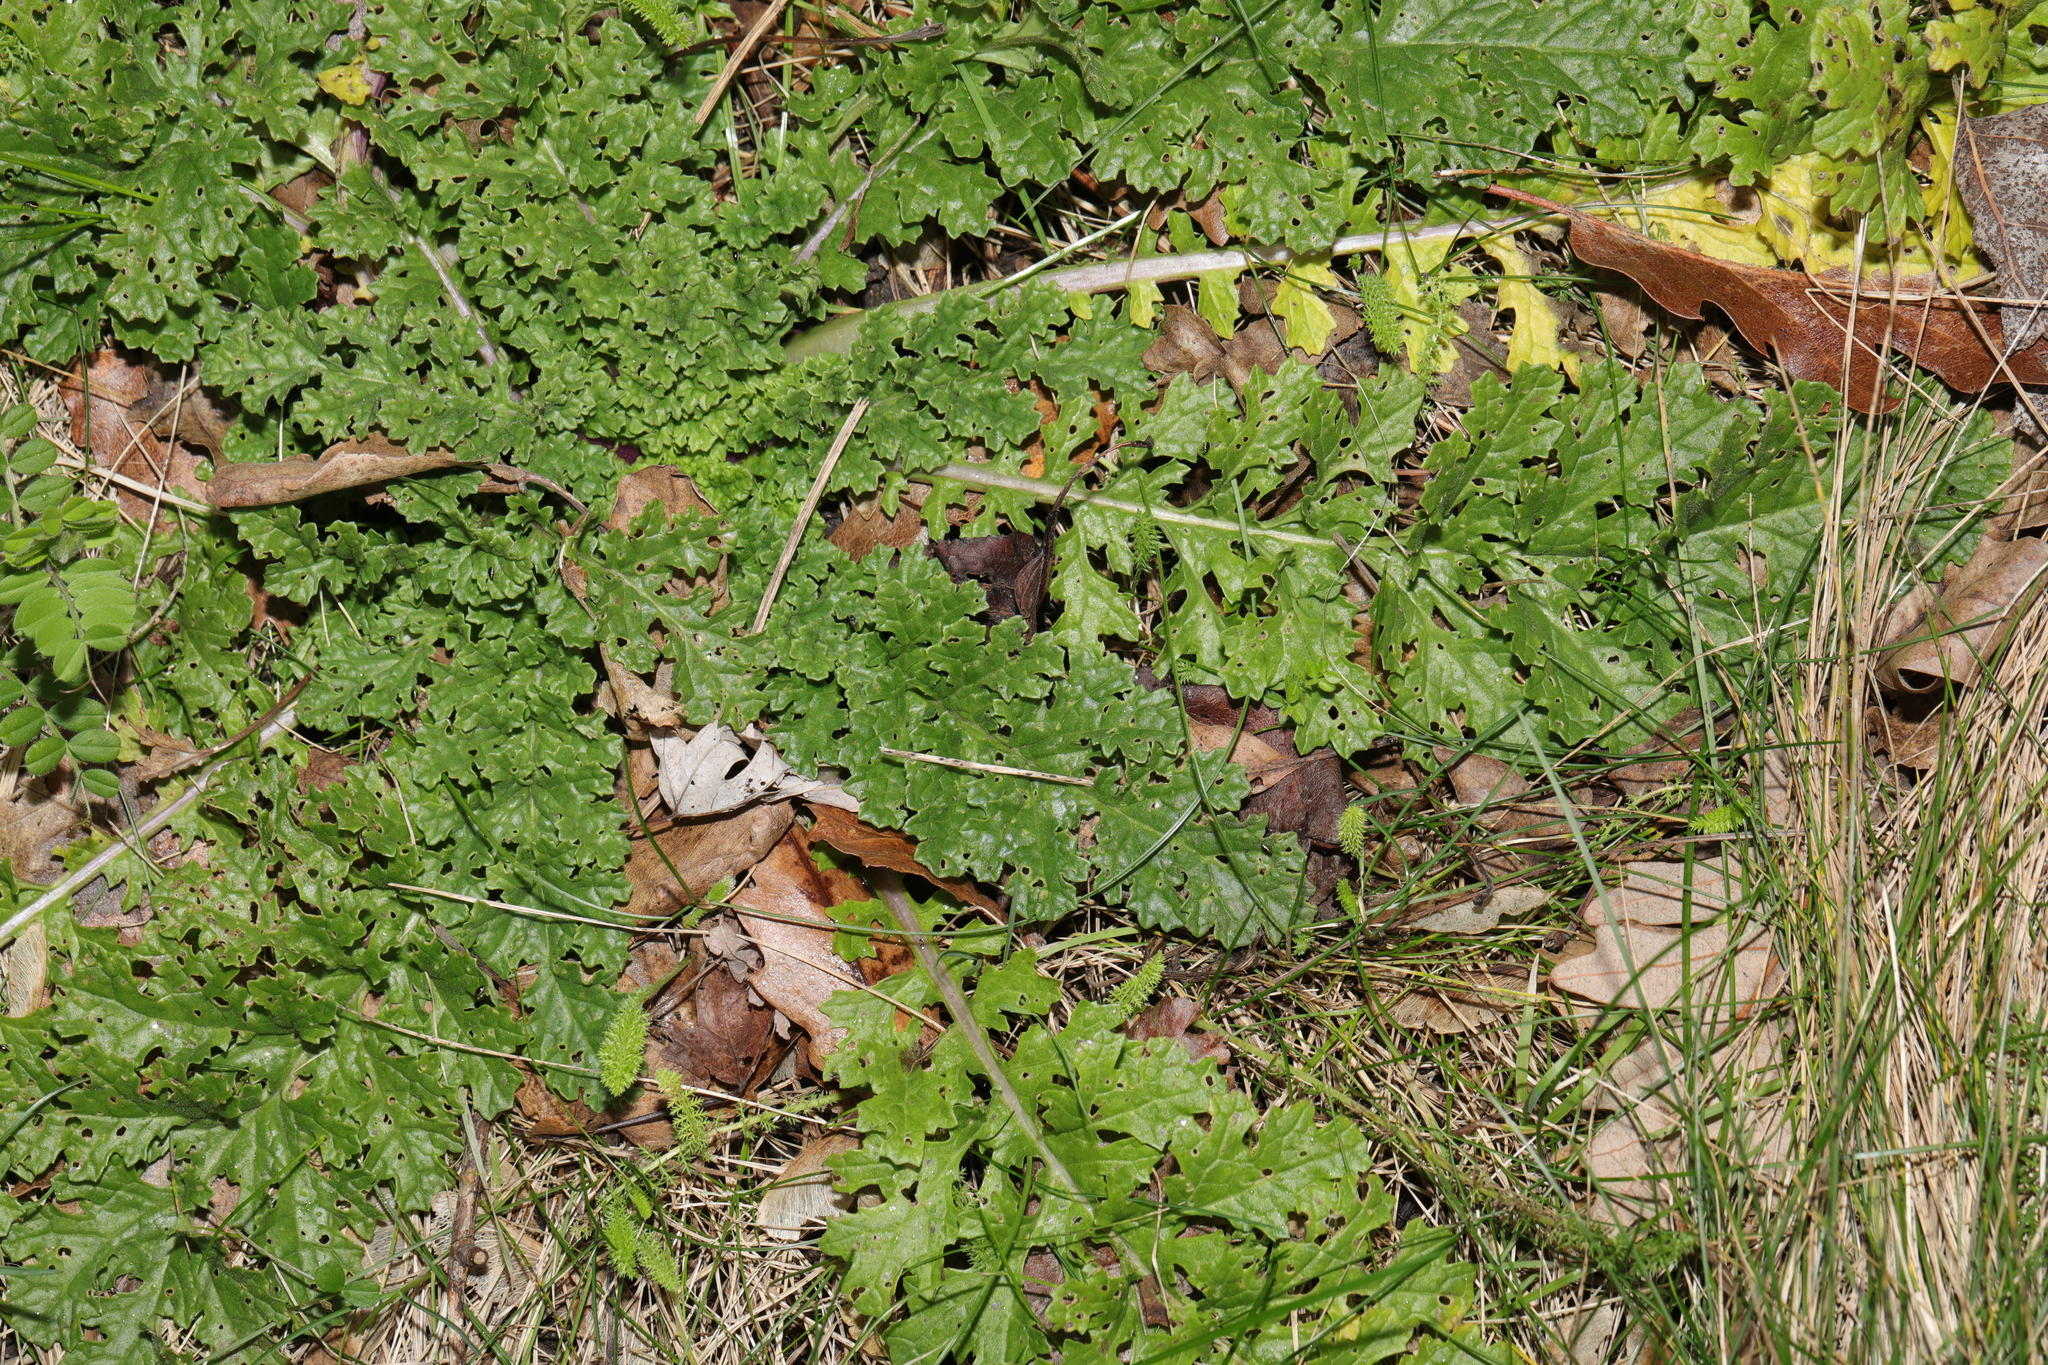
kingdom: Plantae
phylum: Tracheophyta
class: Magnoliopsida
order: Asterales
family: Asteraceae
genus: Jacobaea
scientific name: Jacobaea vulgaris
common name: Stinking willie
